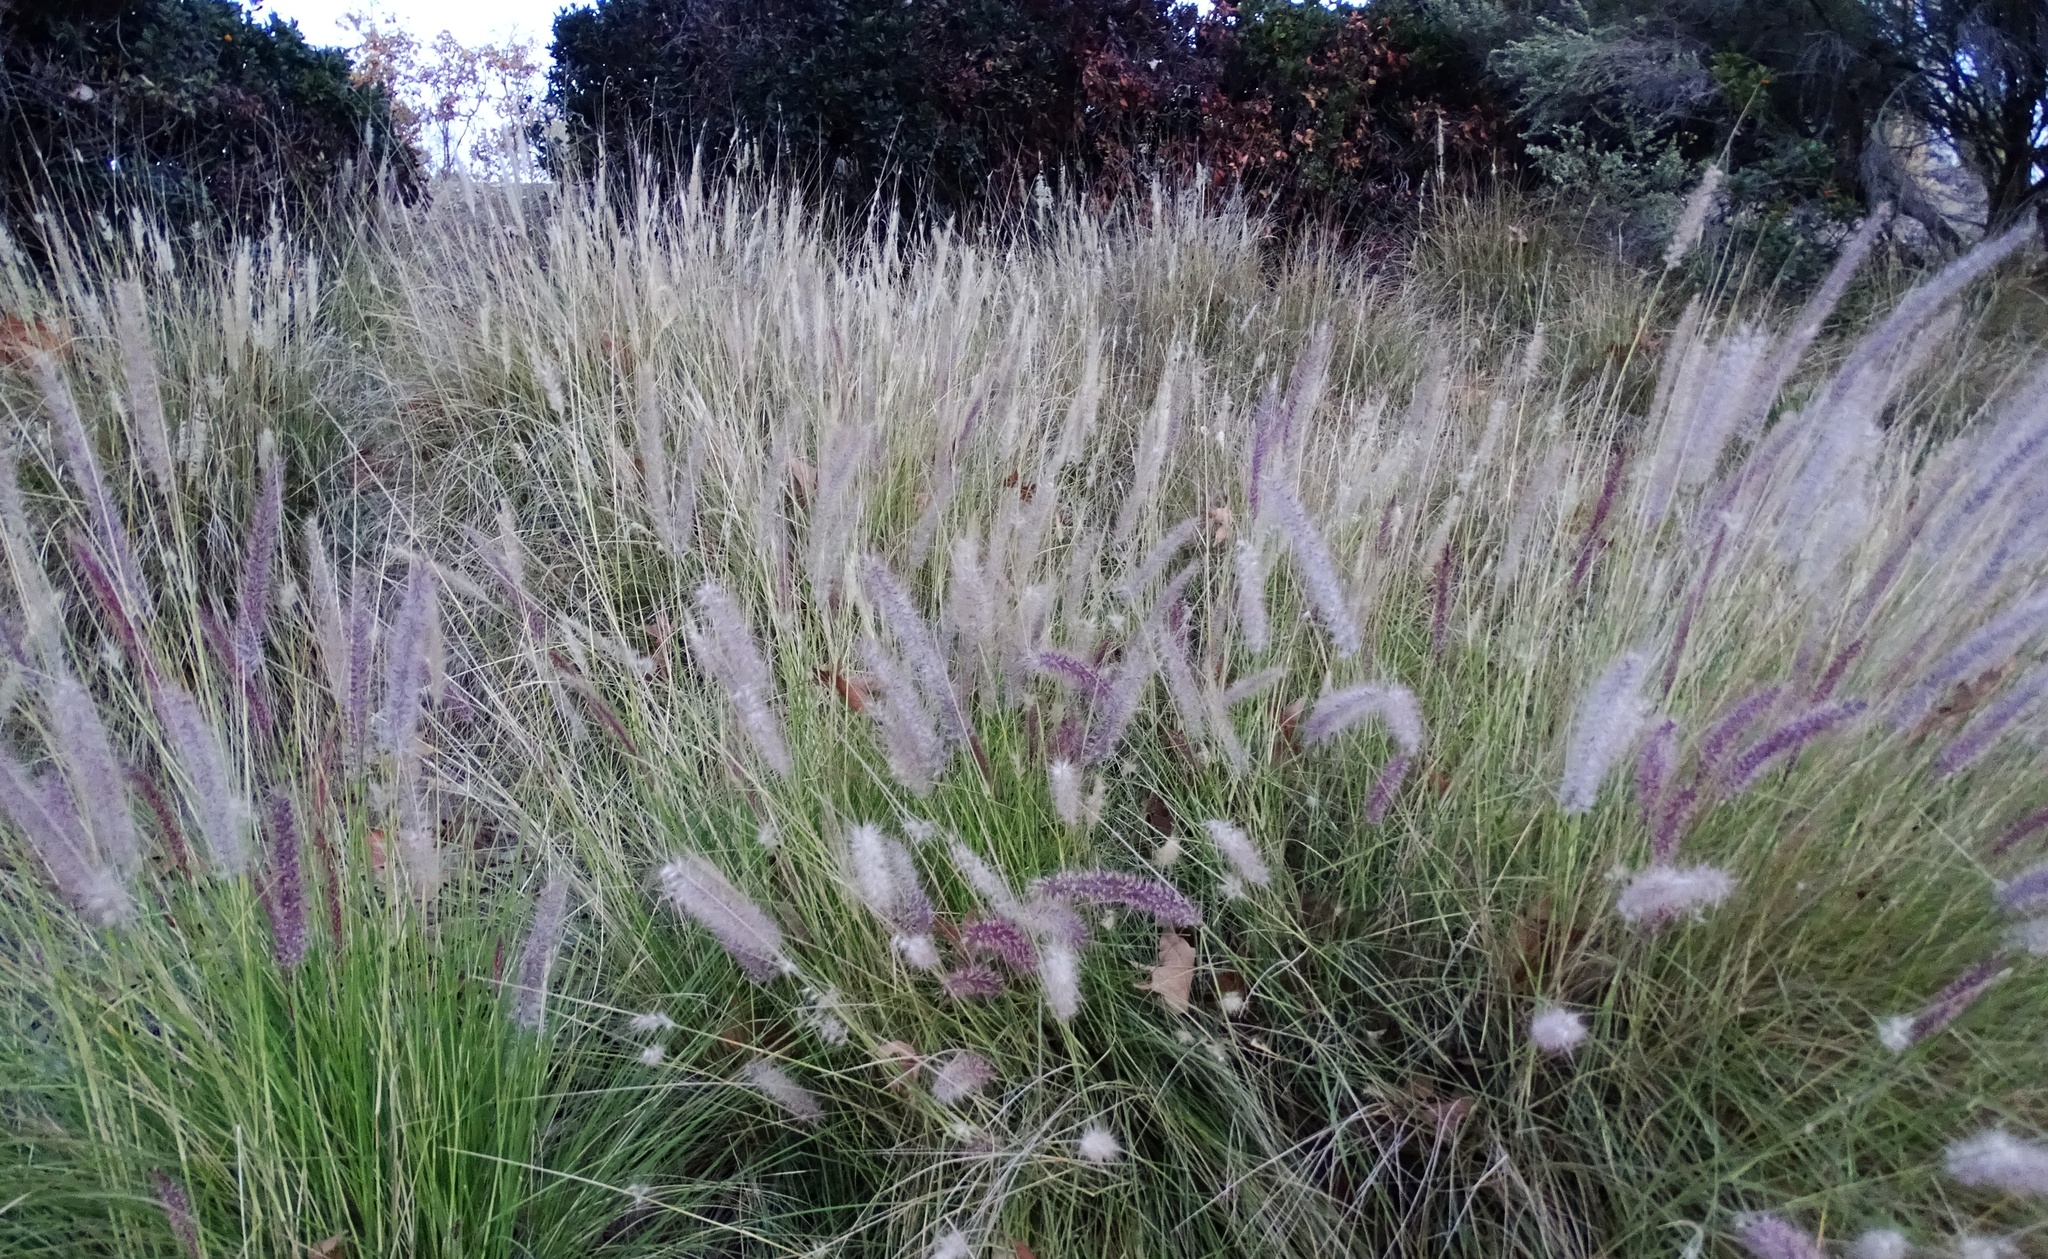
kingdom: Plantae
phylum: Tracheophyta
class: Liliopsida
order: Poales
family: Poaceae
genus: Cenchrus
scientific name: Cenchrus setaceus
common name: Crimson fountaingrass
